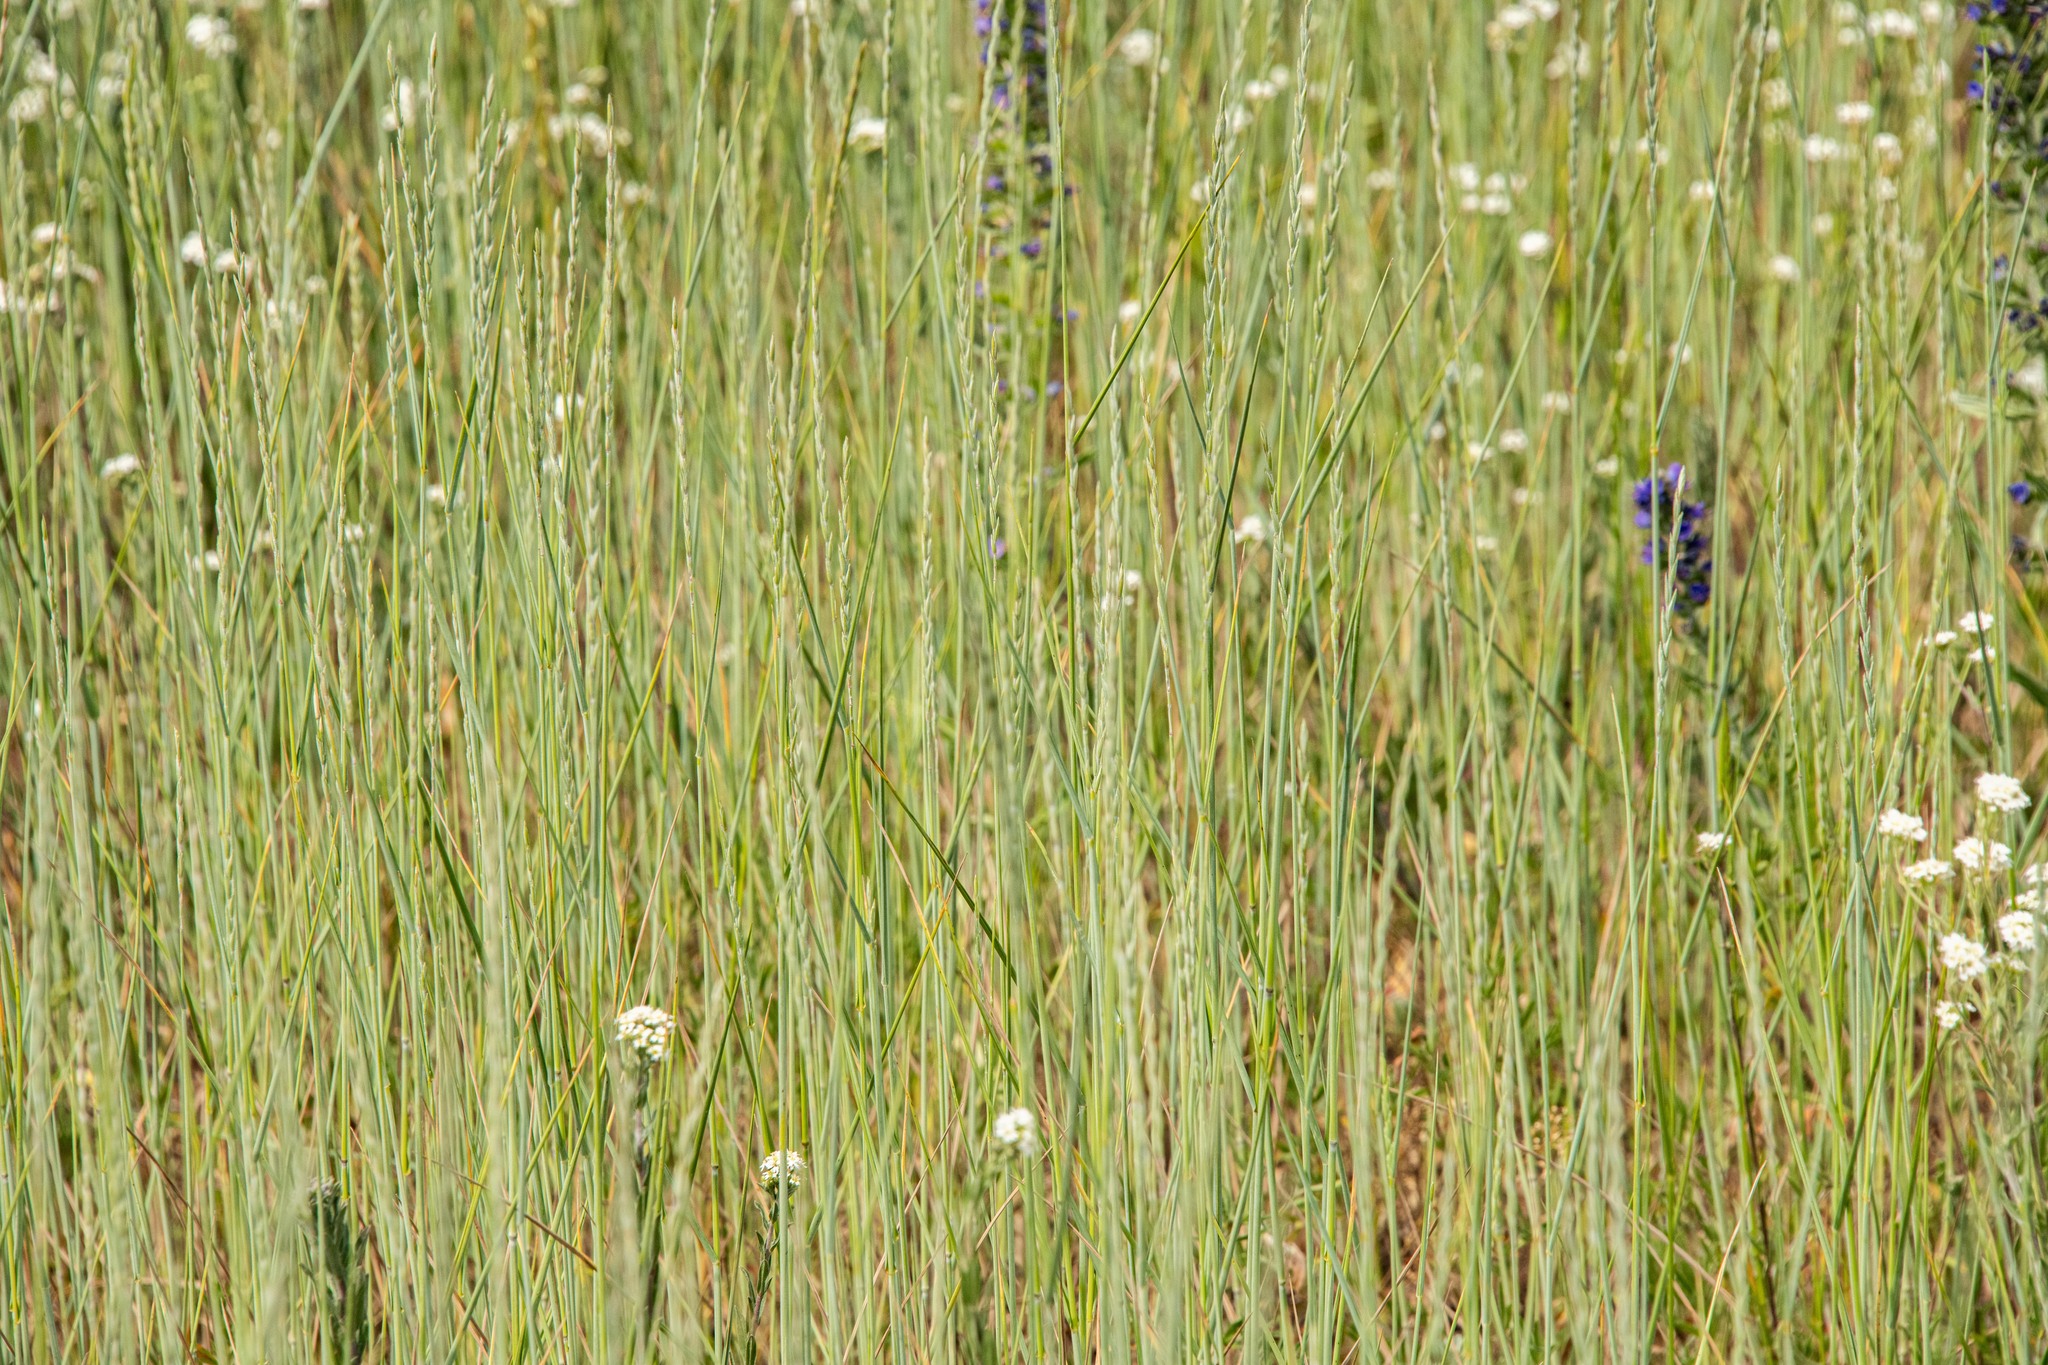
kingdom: Plantae
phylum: Tracheophyta
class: Liliopsida
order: Poales
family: Poaceae
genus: Elymus
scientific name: Elymus repens
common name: Quackgrass
